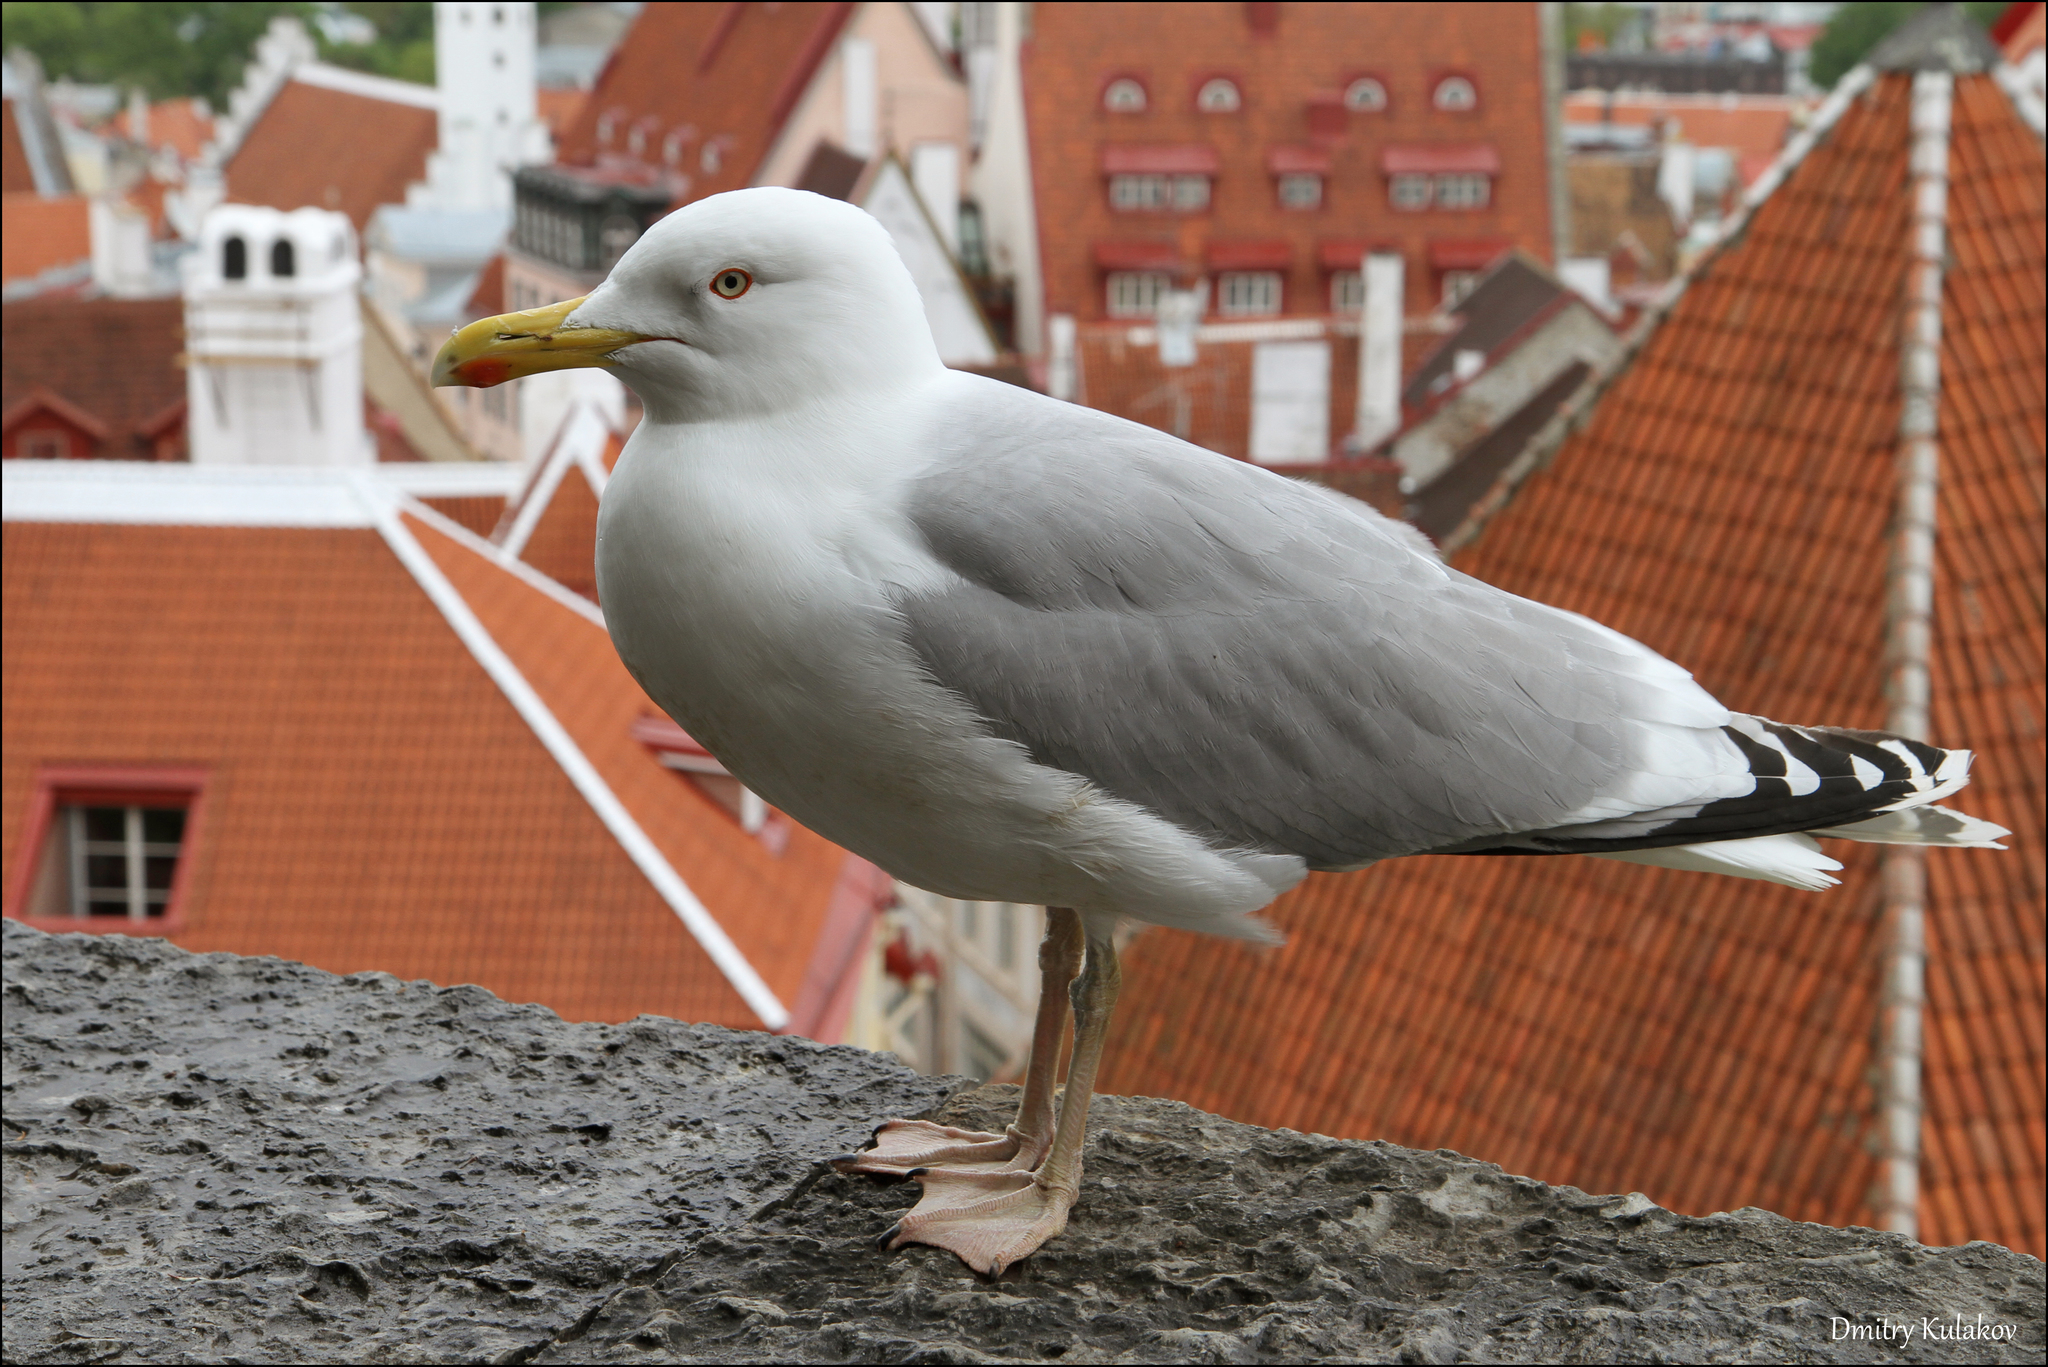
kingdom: Animalia
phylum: Chordata
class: Aves
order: Charadriiformes
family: Laridae
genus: Larus
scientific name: Larus argentatus
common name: Herring gull
